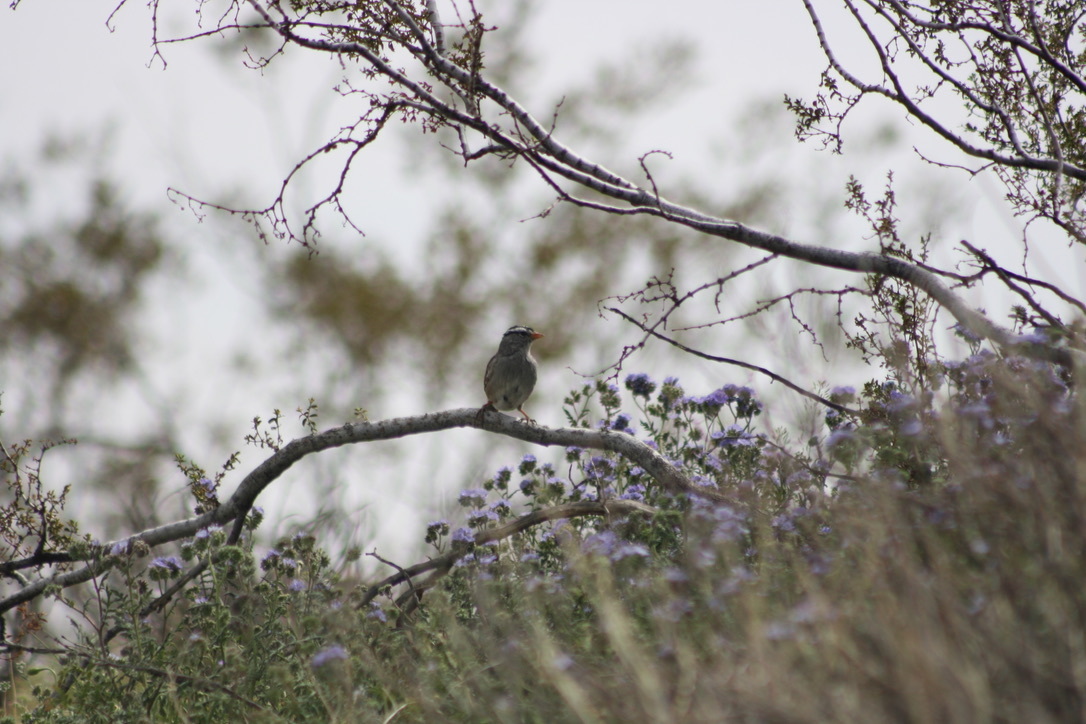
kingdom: Animalia
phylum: Chordata
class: Aves
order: Passeriformes
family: Passerellidae
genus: Zonotrichia
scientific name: Zonotrichia leucophrys
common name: White-crowned sparrow
